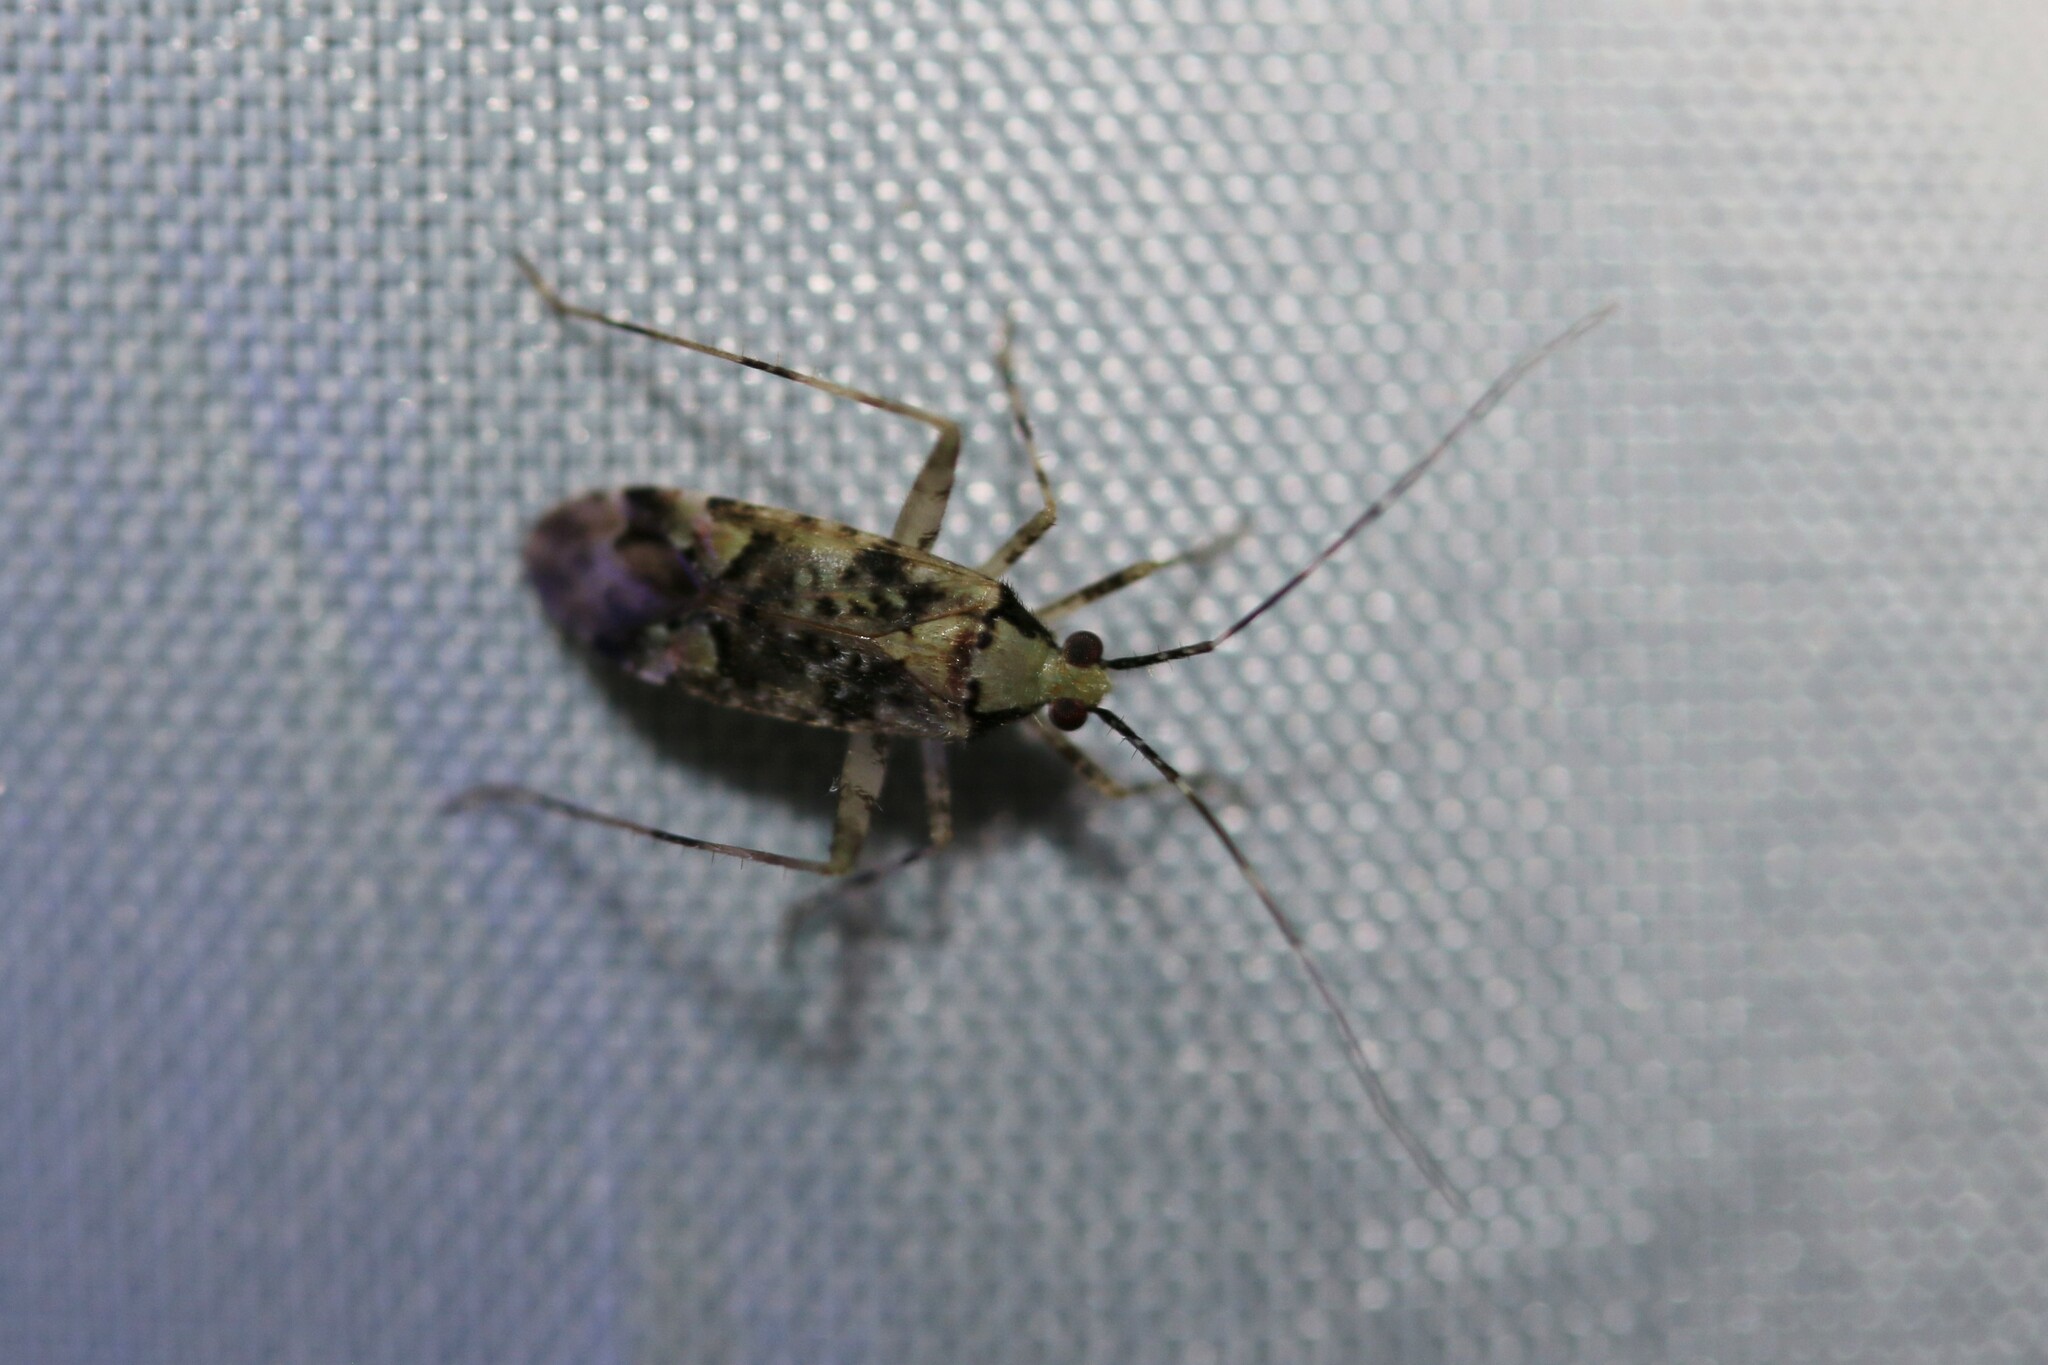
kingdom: Animalia
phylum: Arthropoda
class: Insecta
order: Hemiptera
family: Miridae
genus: Phytocoris
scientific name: Phytocoris tiliae
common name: Plant bug
